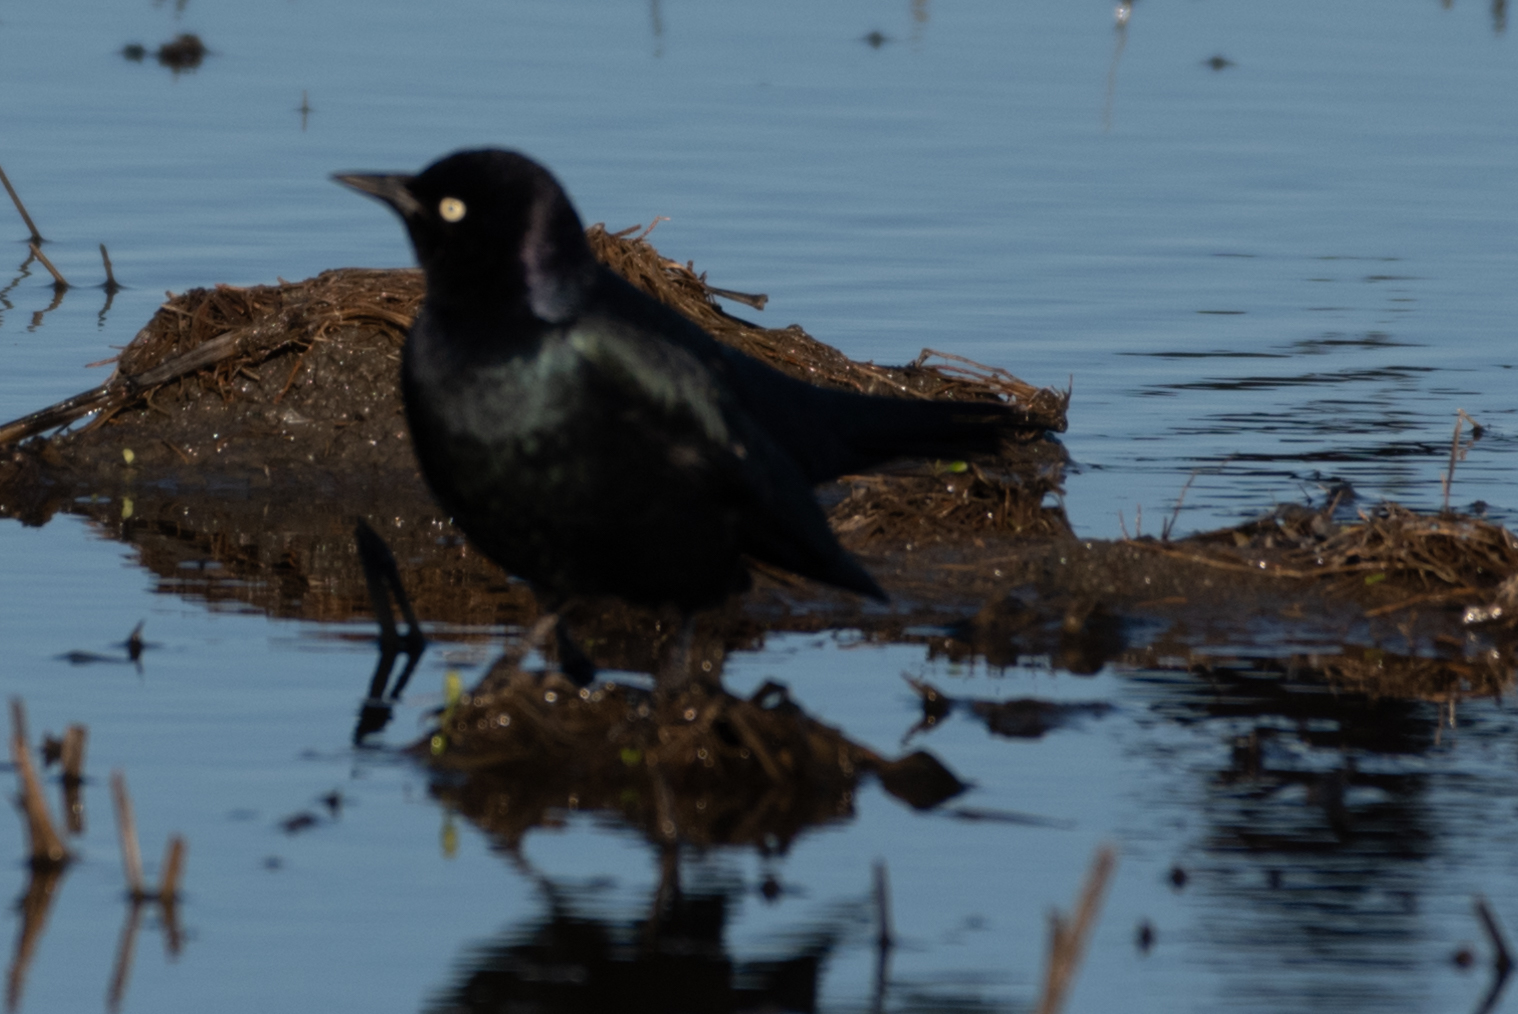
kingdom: Animalia
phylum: Chordata
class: Aves
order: Passeriformes
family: Icteridae
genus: Euphagus
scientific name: Euphagus cyanocephalus
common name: Brewer's blackbird
